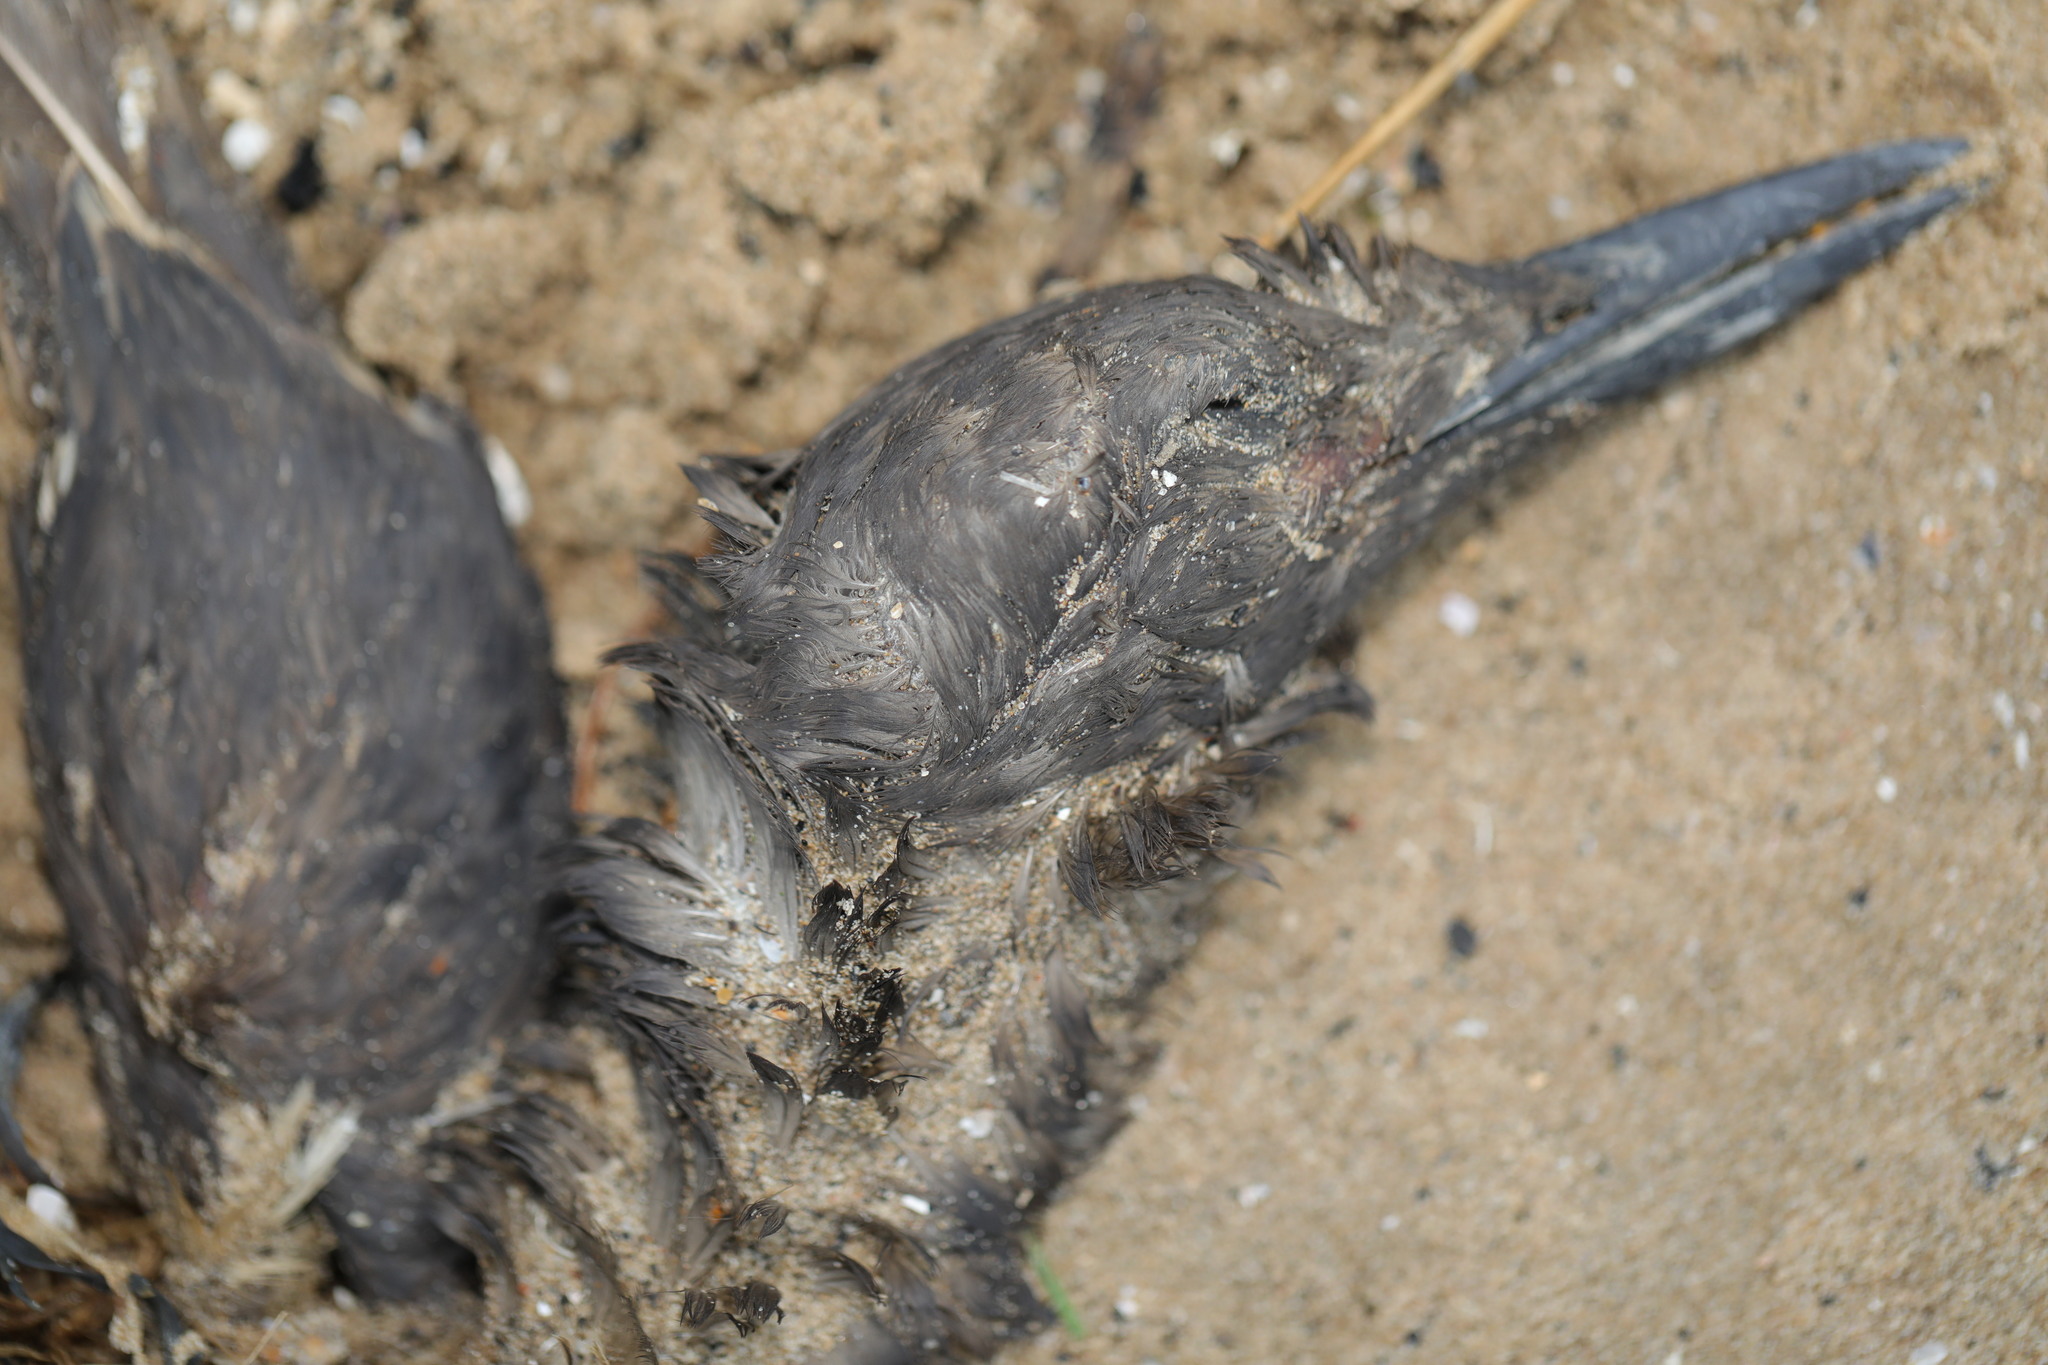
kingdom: Animalia
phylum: Chordata
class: Aves
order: Charadriiformes
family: Alcidae
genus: Uria
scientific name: Uria aalge
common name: Common murre
